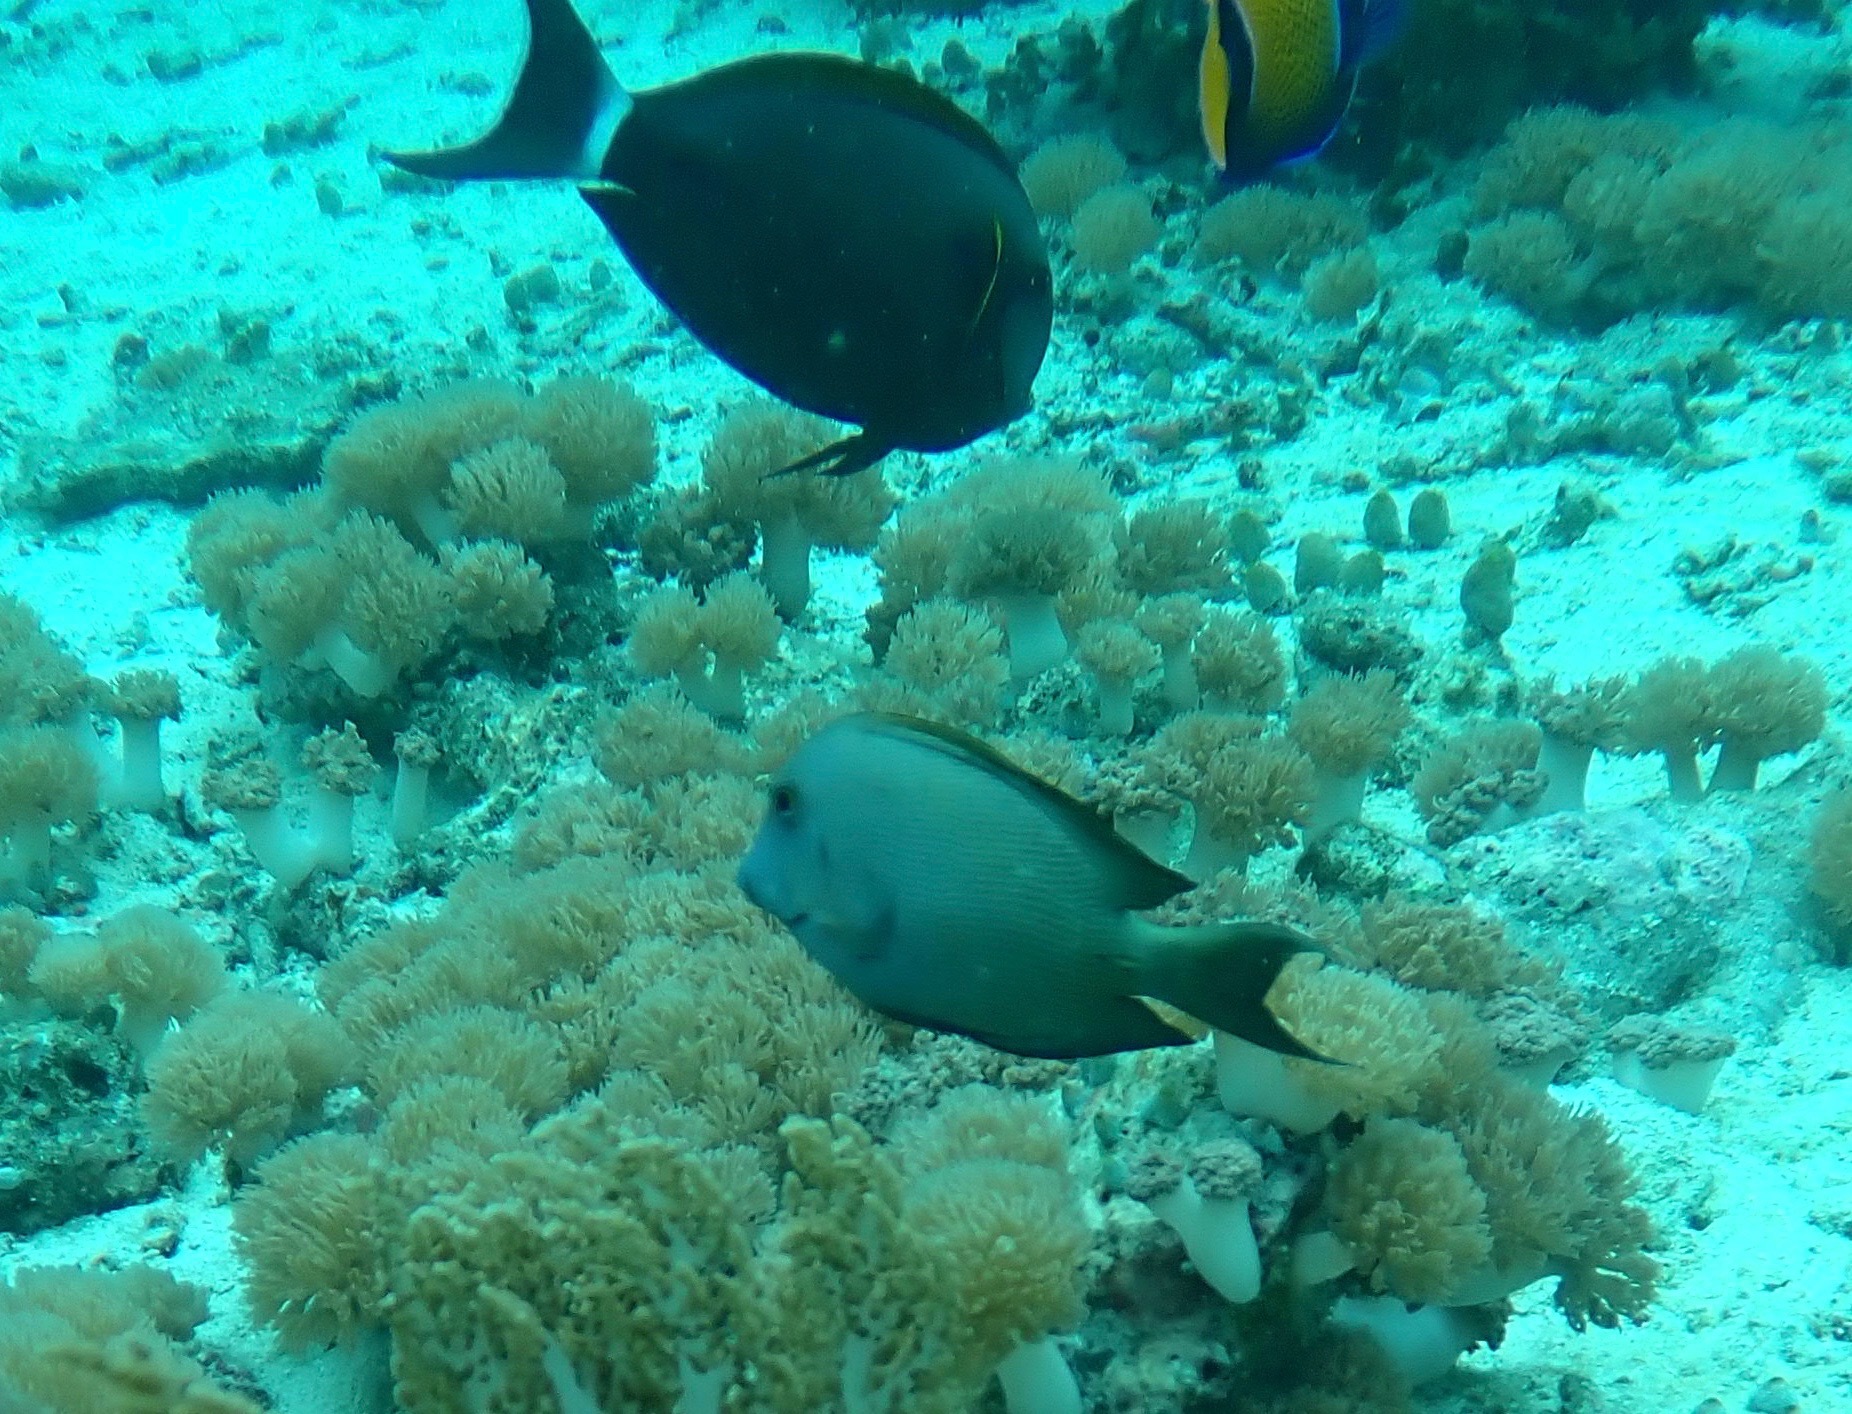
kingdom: Animalia
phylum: Chordata
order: Perciformes
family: Acanthuridae
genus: Ctenochaetus
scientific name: Ctenochaetus striatus
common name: Bristle-toothed surgeonfish
